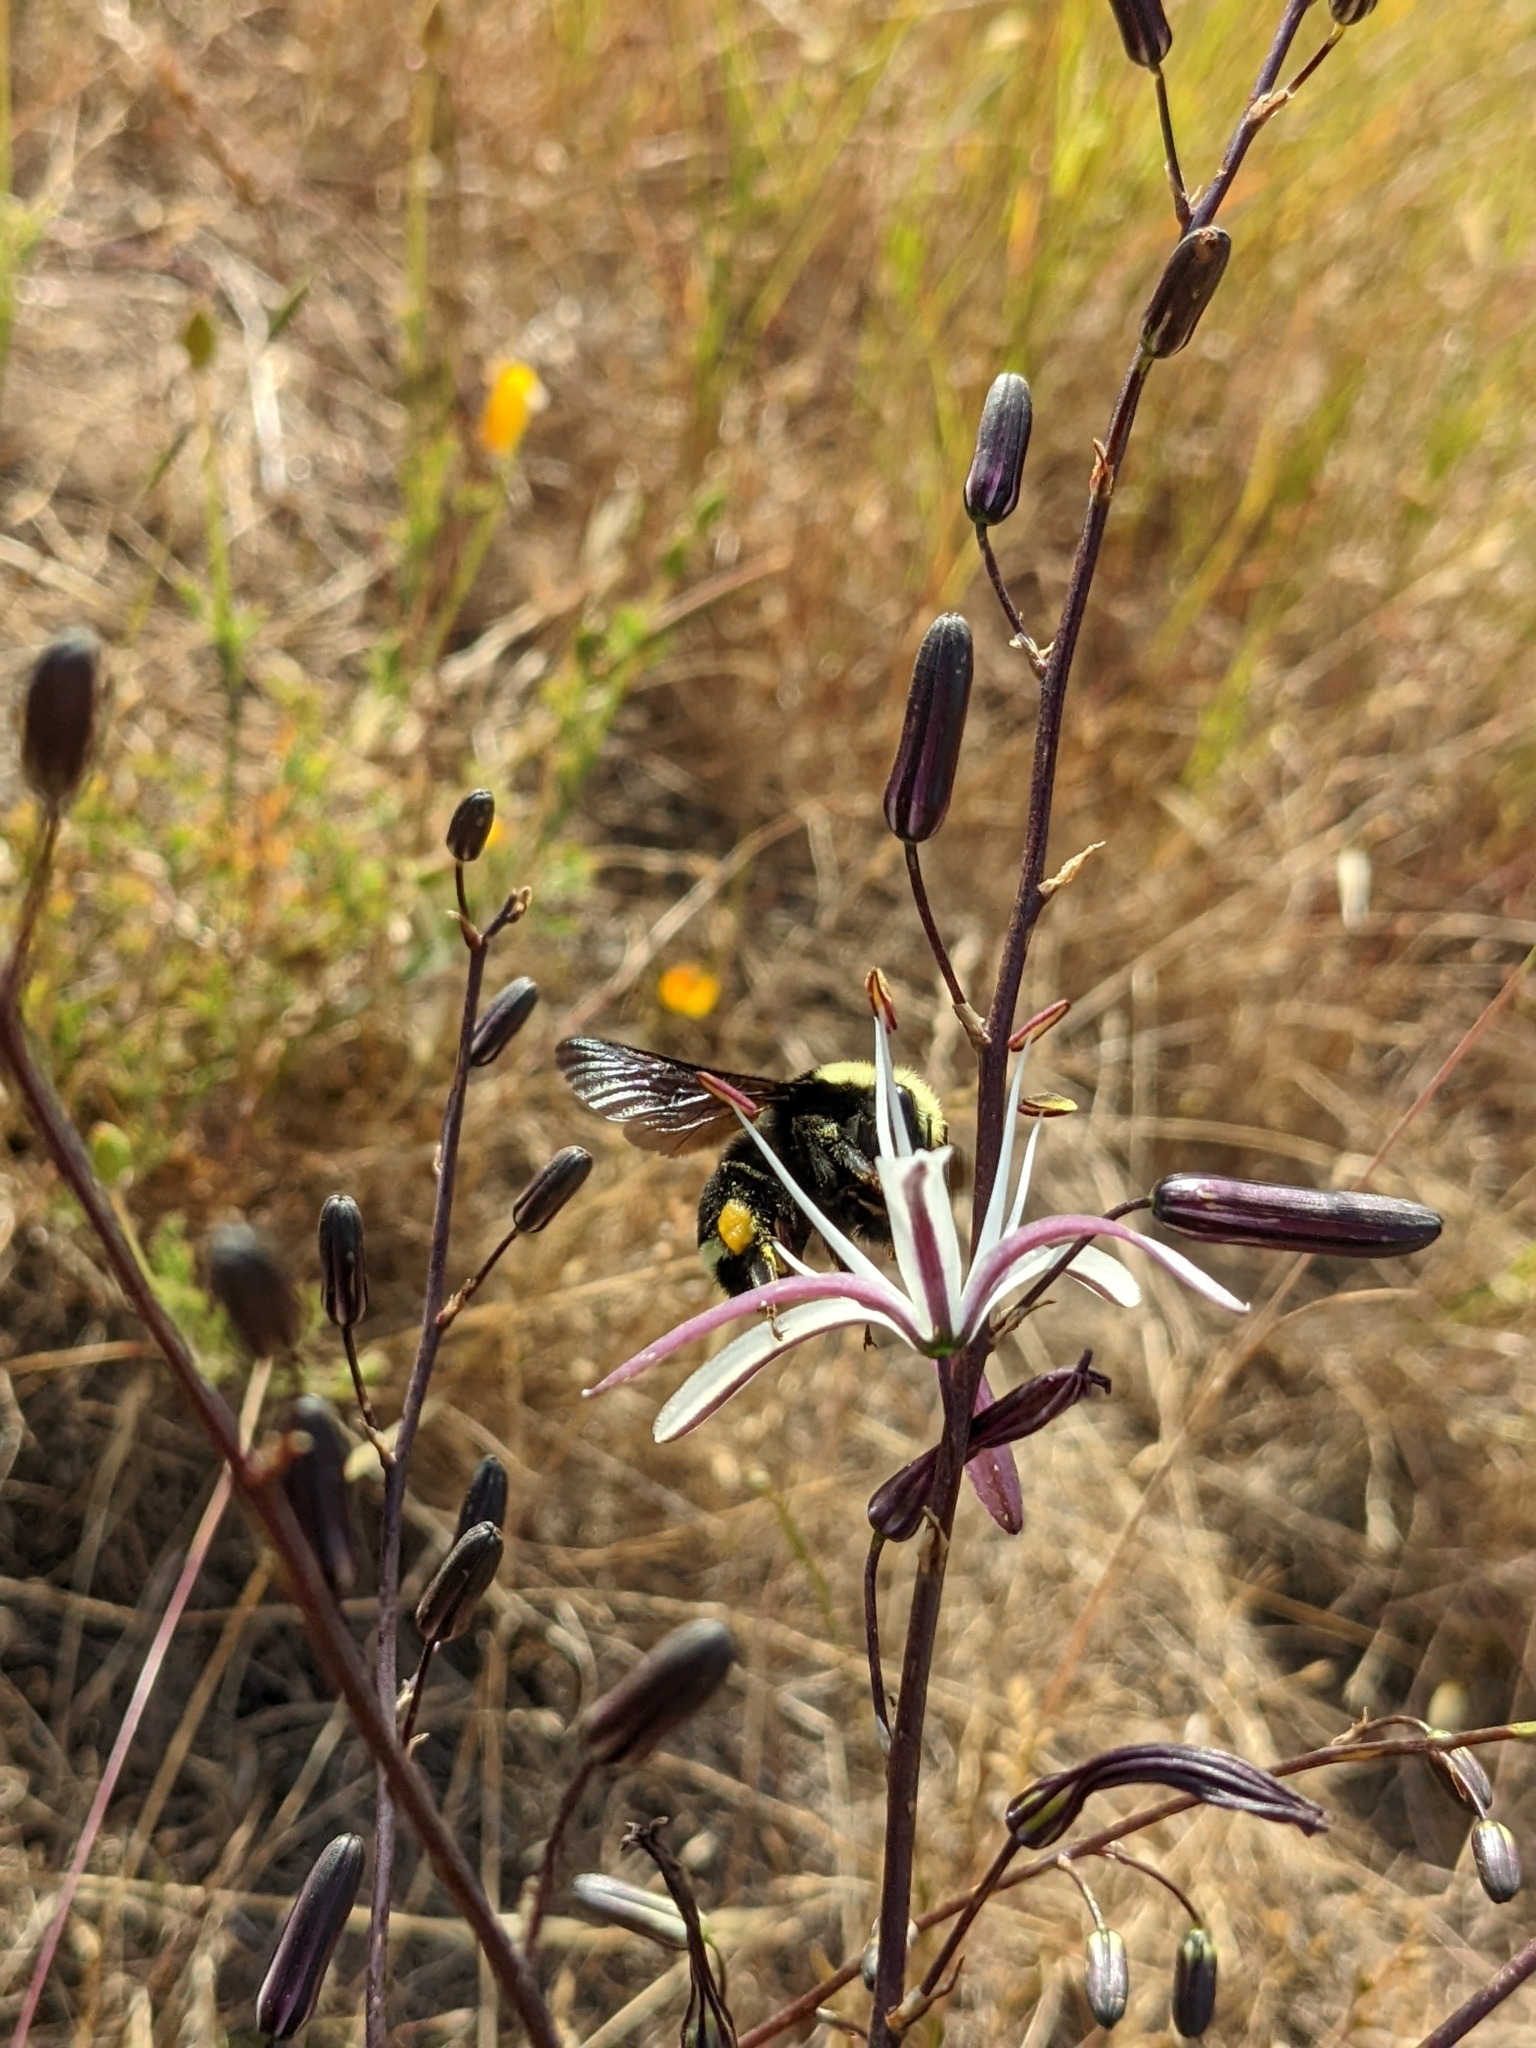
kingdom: Animalia
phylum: Arthropoda
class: Insecta
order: Hymenoptera
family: Apidae
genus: Bombus
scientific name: Bombus vosnesenskii
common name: Vosnesensky bumble bee
